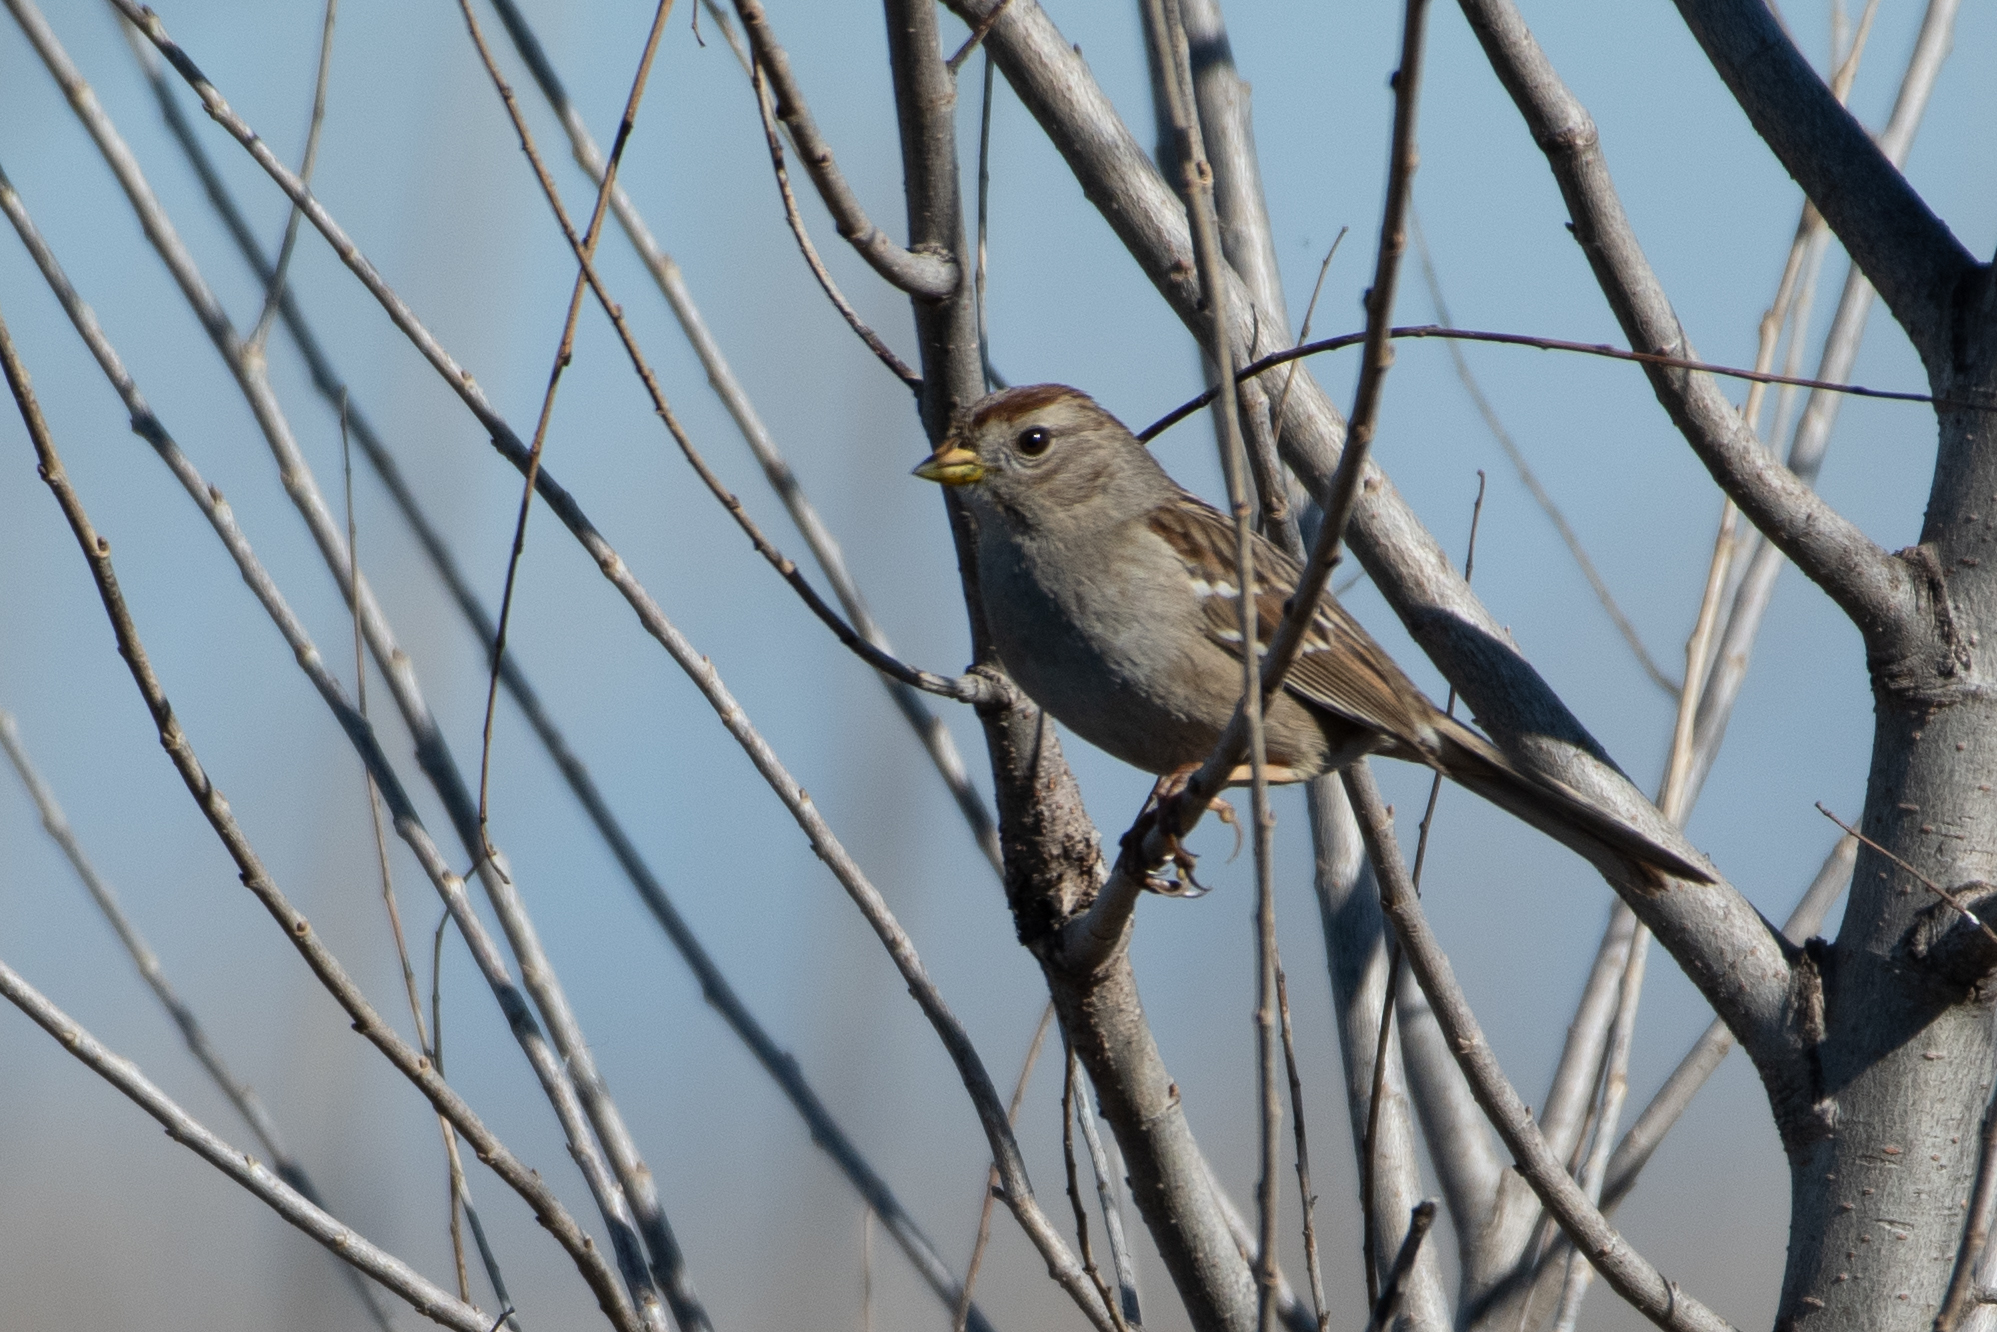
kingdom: Animalia
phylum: Chordata
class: Aves
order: Passeriformes
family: Passerellidae
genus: Zonotrichia
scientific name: Zonotrichia atricapilla
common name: Golden-crowned sparrow
